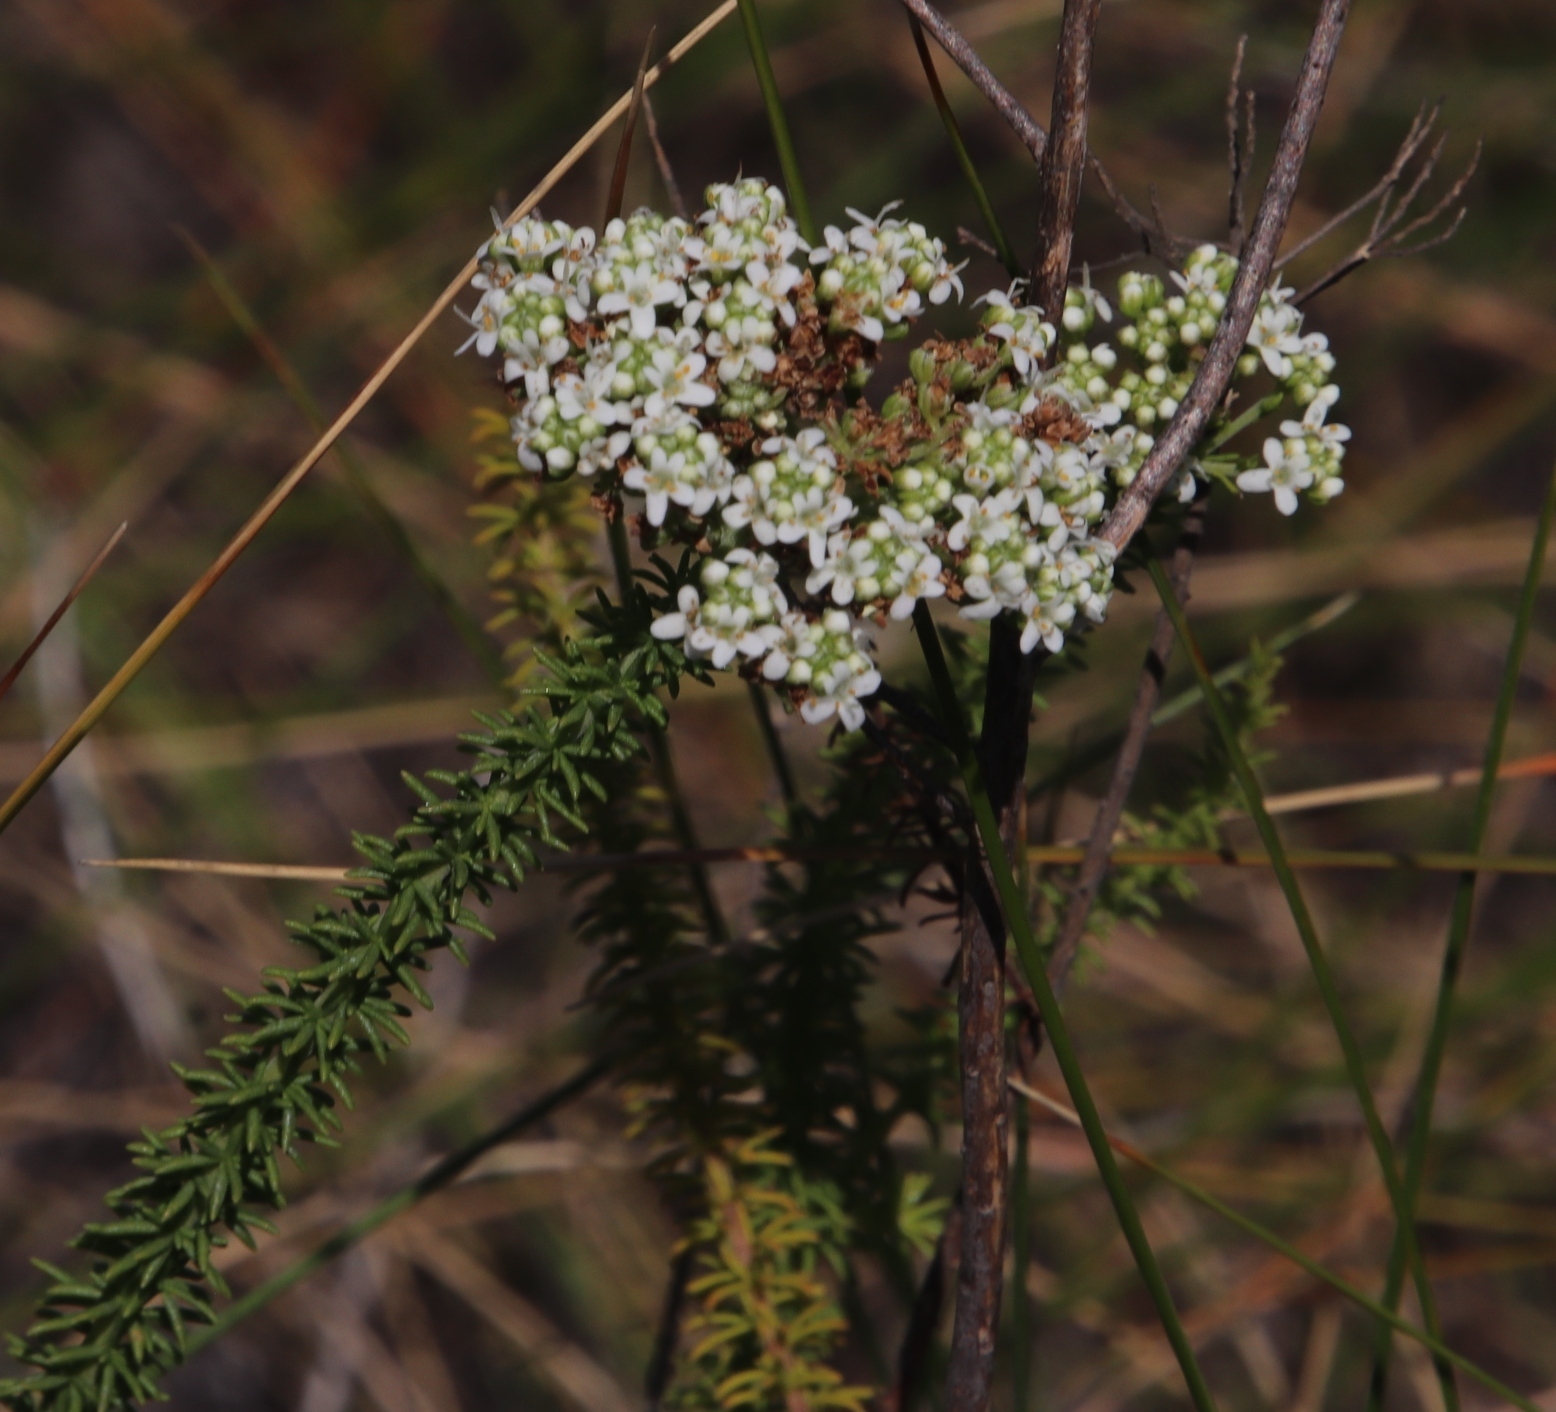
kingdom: Plantae
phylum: Tracheophyta
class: Magnoliopsida
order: Lamiales
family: Scrophulariaceae
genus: Selago
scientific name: Selago dolosa
